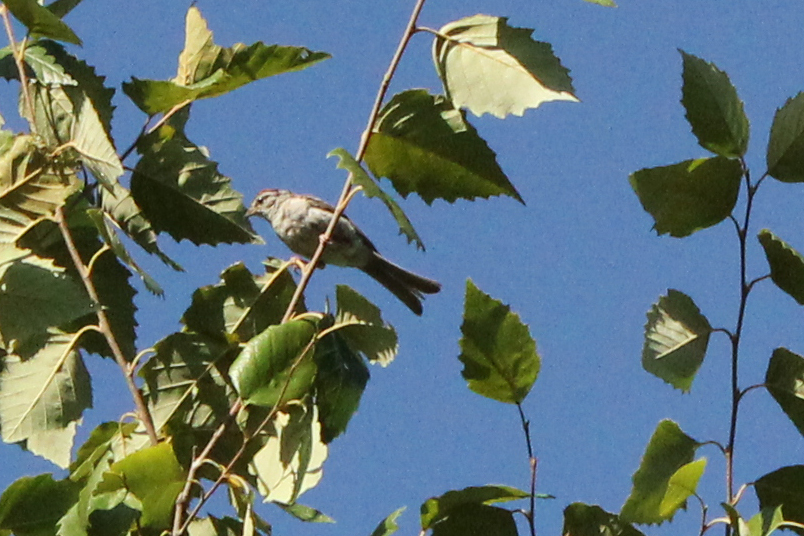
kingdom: Animalia
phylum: Chordata
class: Aves
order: Passeriformes
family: Passerellidae
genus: Spizella
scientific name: Spizella passerina
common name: Chipping sparrow
